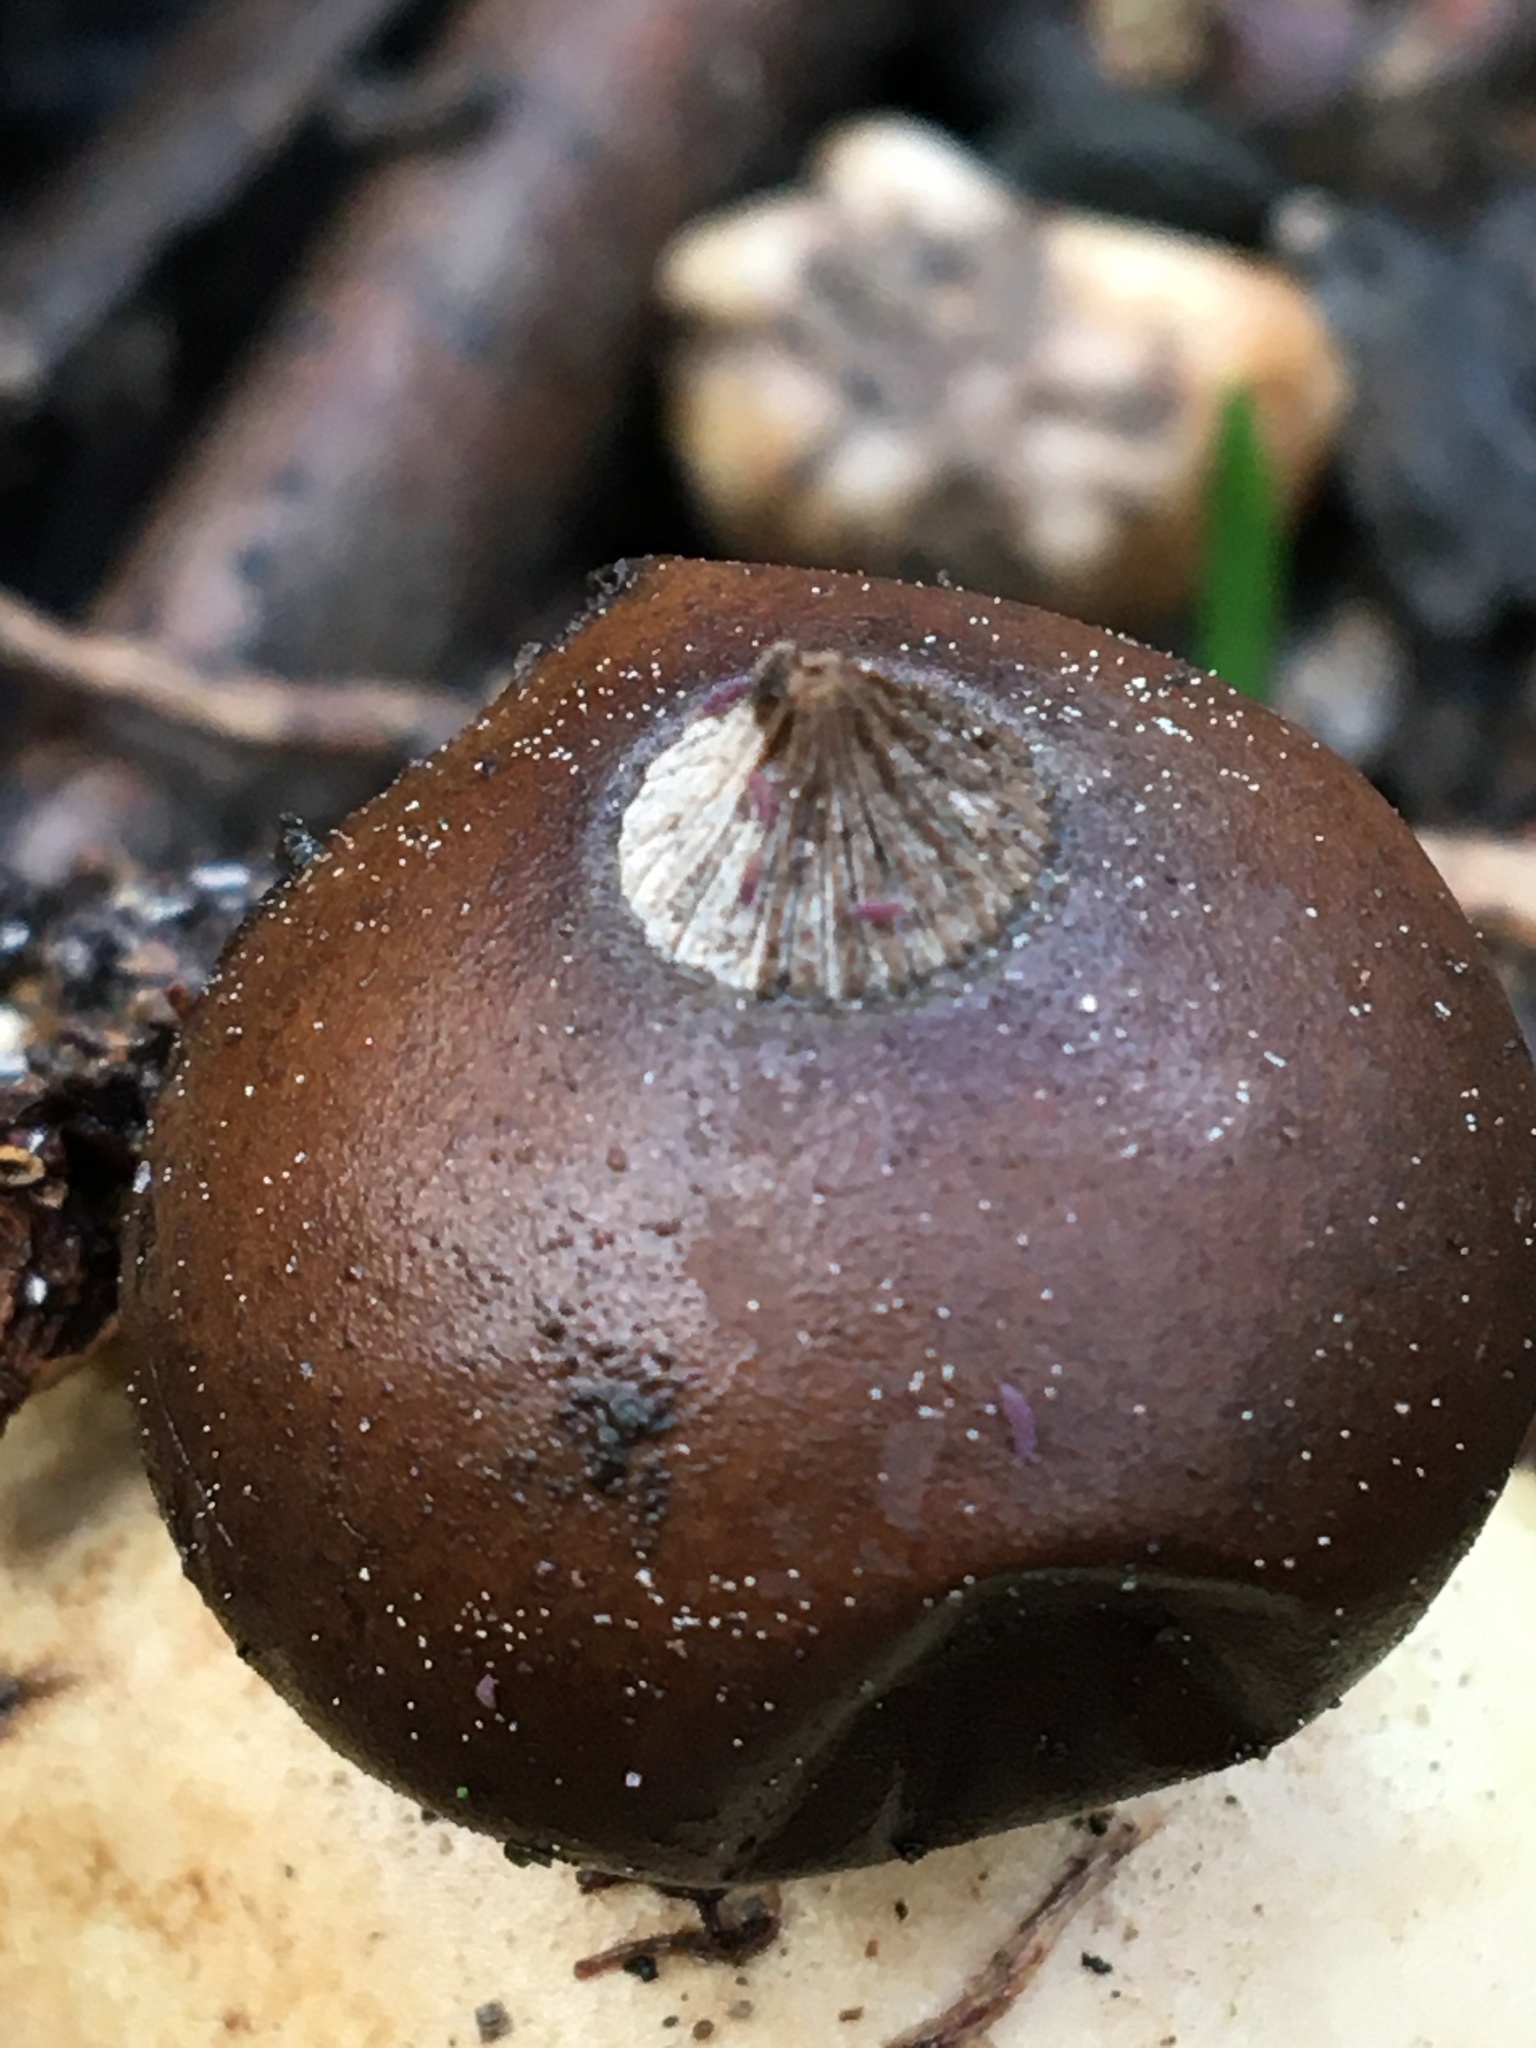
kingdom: Fungi
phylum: Basidiomycota
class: Agaricomycetes
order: Geastrales
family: Geastraceae
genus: Geastrum
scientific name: Geastrum pectinatum
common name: Beaked earthstar
